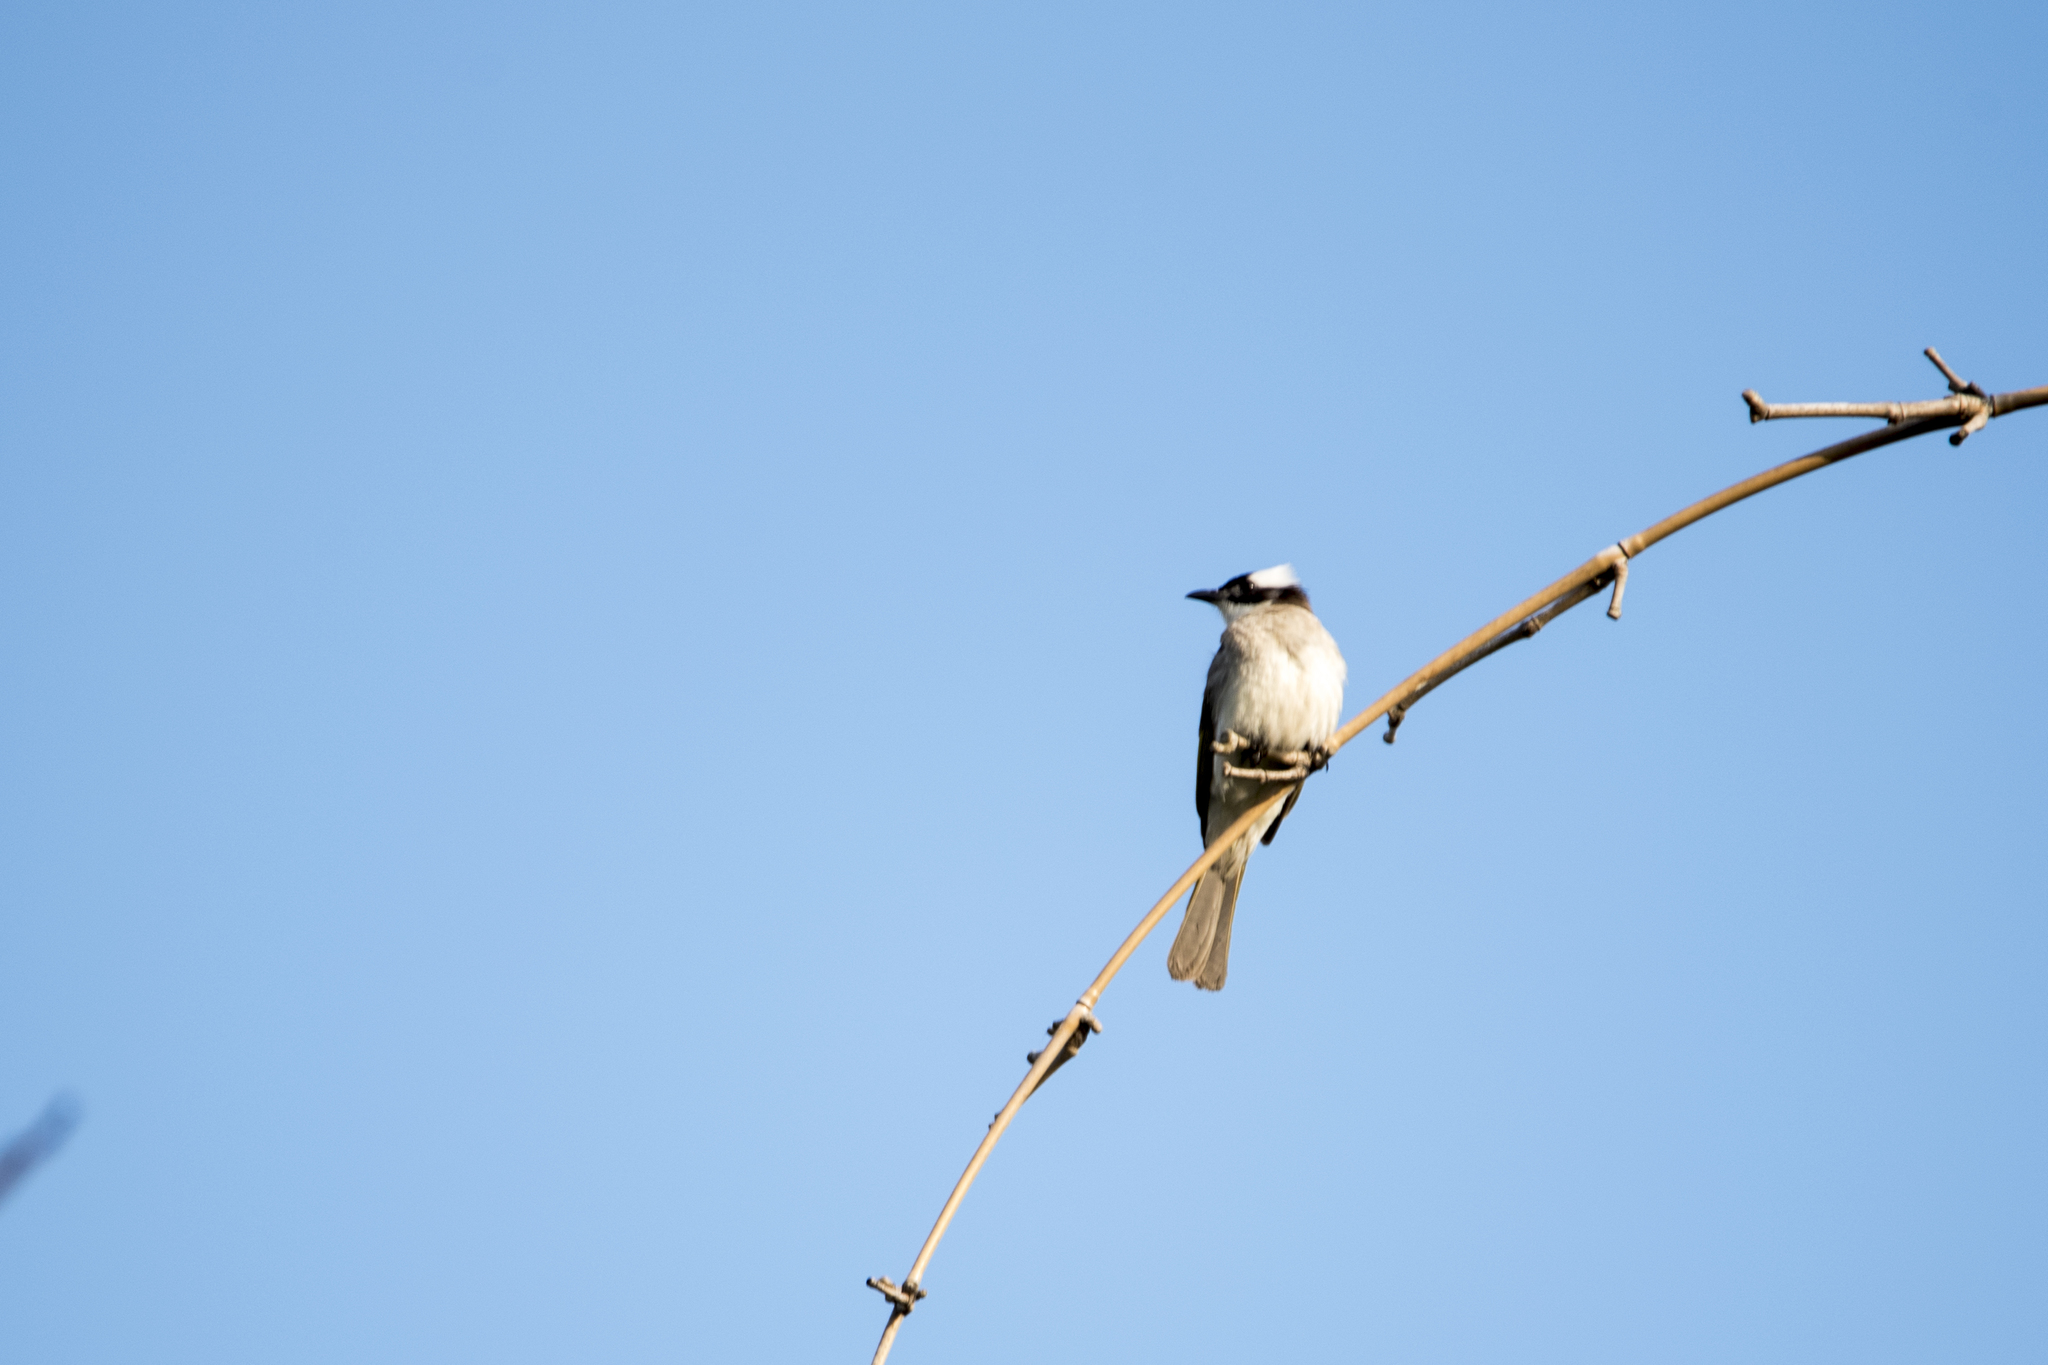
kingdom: Animalia
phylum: Chordata
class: Aves
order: Passeriformes
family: Pycnonotidae
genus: Pycnonotus
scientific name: Pycnonotus sinensis
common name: Light-vented bulbul
